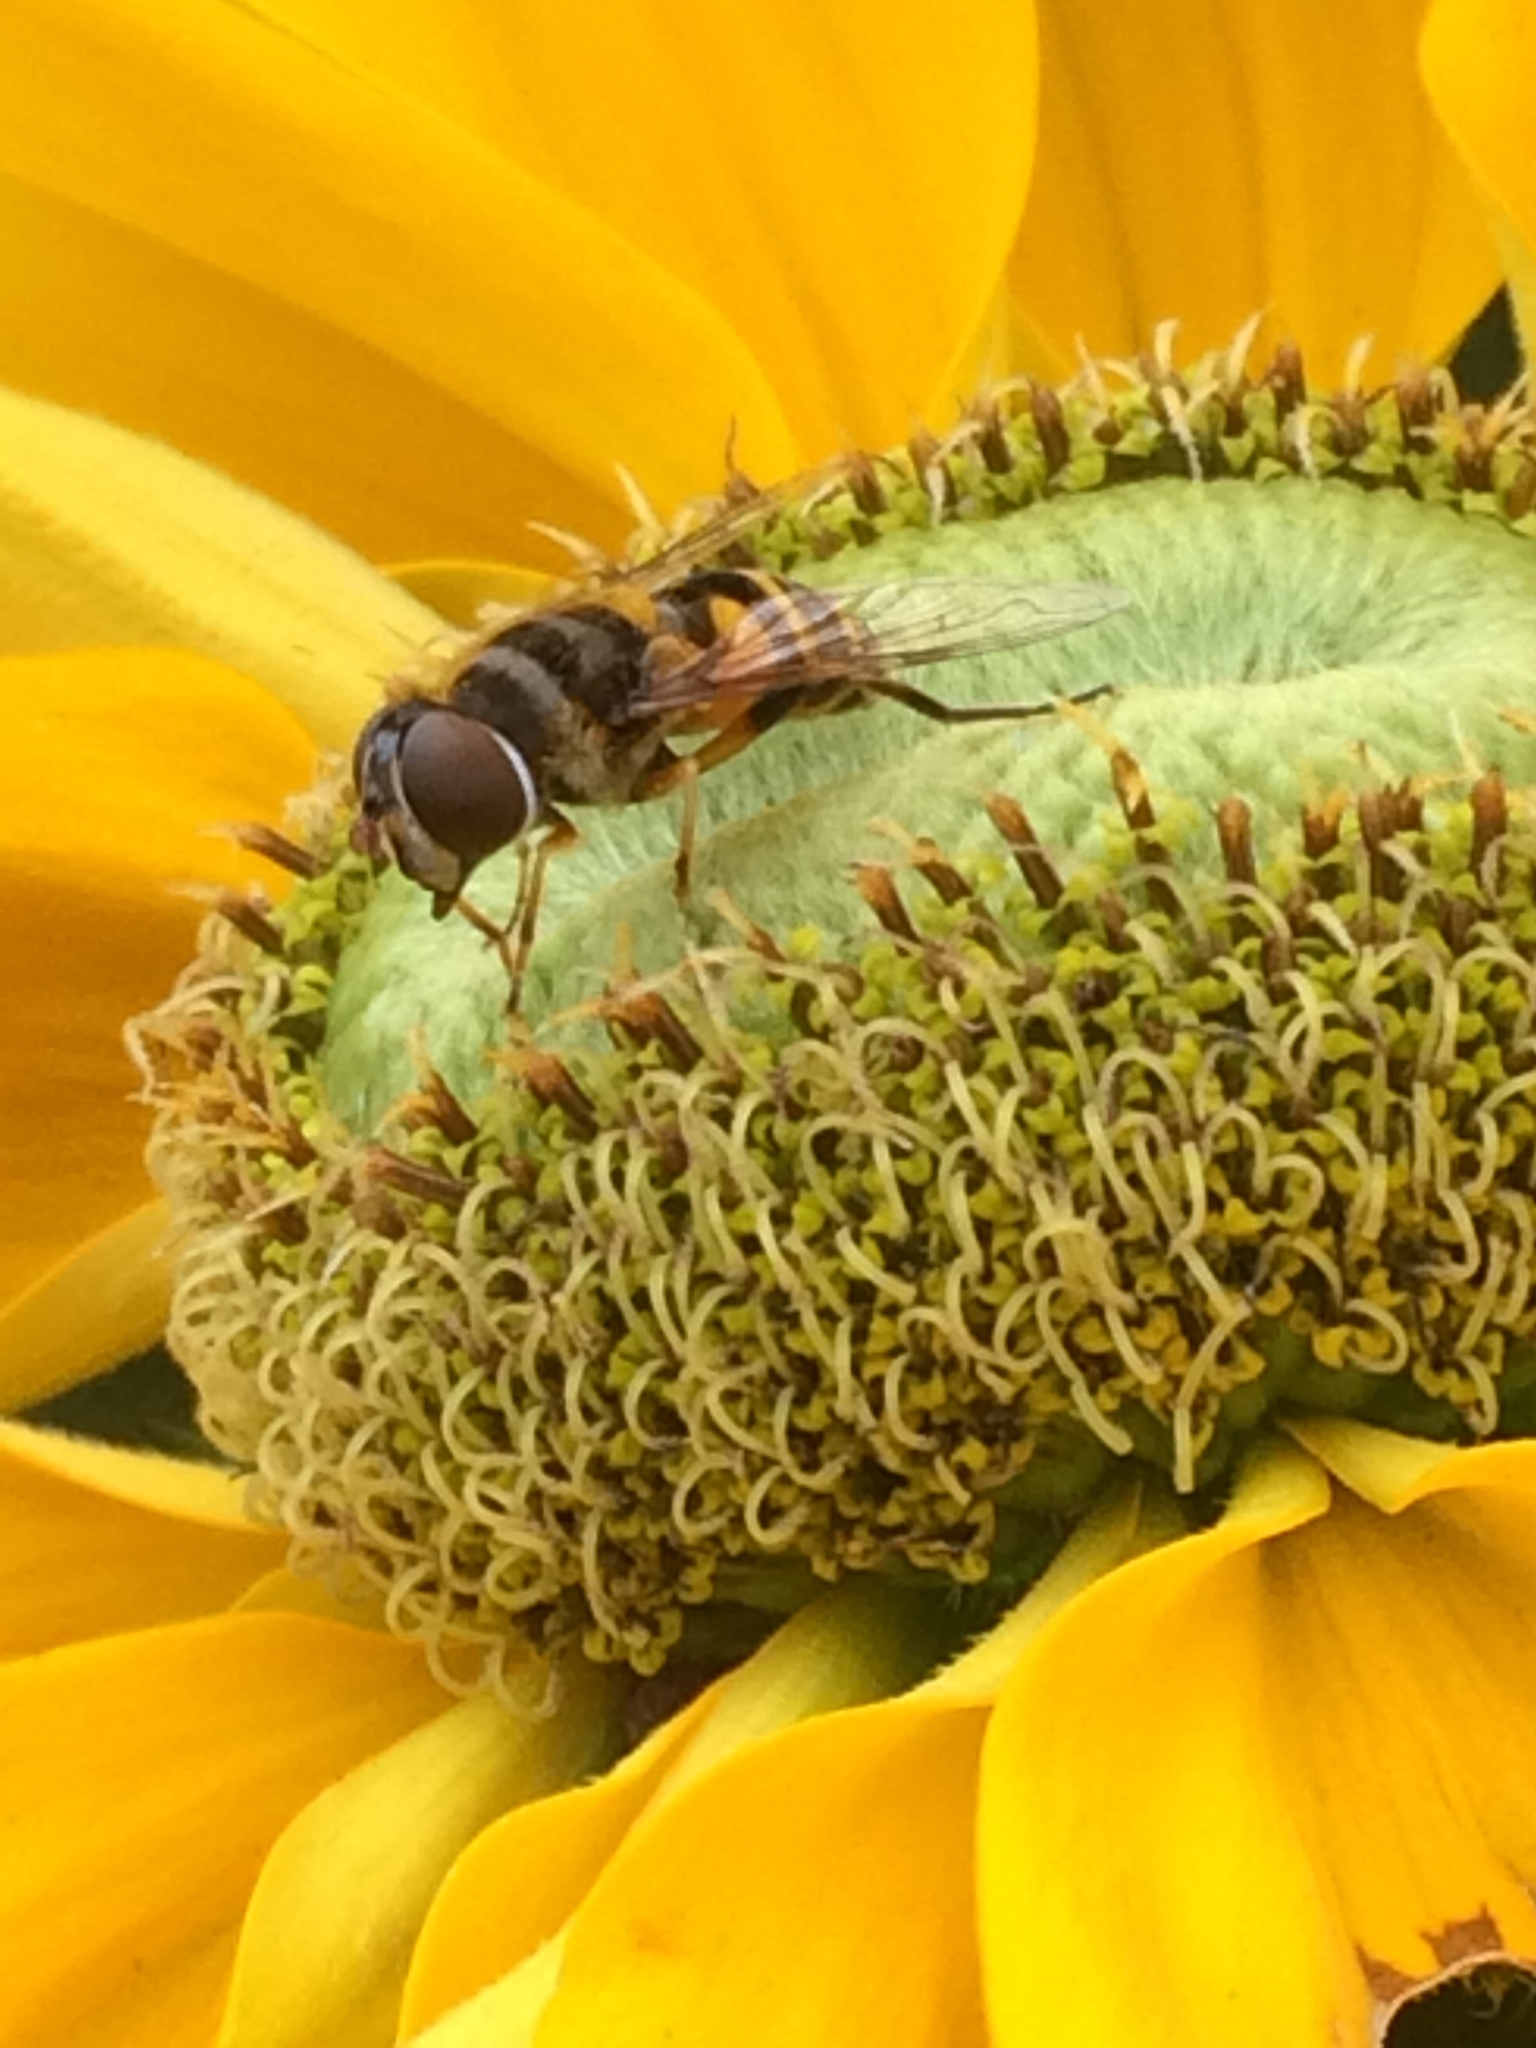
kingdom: Animalia
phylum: Arthropoda
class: Insecta
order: Diptera
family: Syrphidae
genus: Eristalis
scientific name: Eristalis transversa
